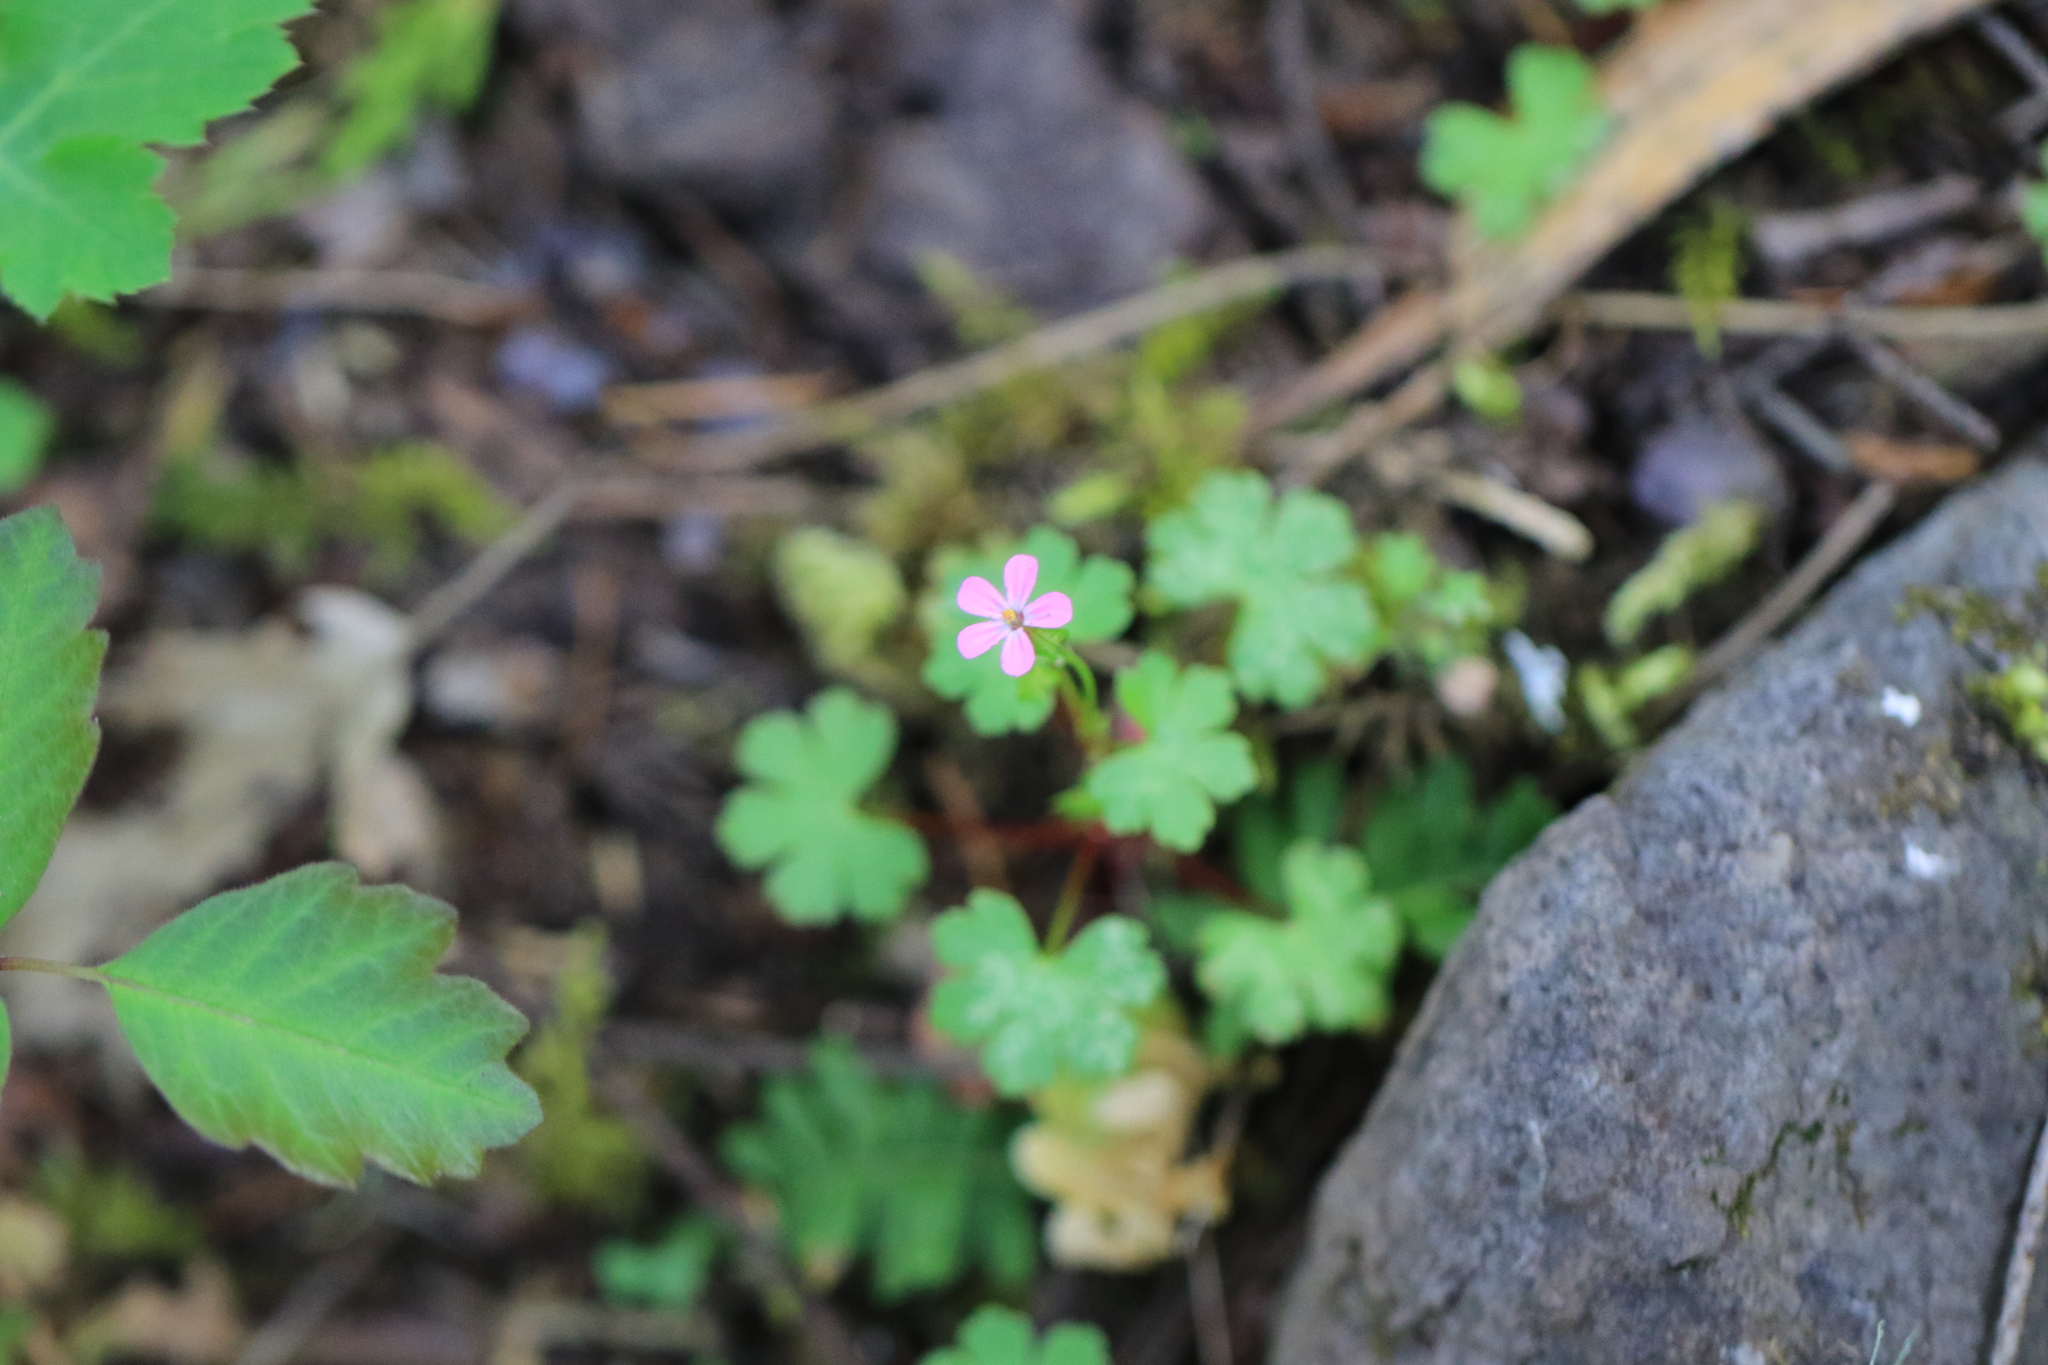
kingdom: Plantae
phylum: Tracheophyta
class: Magnoliopsida
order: Geraniales
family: Geraniaceae
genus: Geranium
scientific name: Geranium lucidum
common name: Shining crane's-bill
